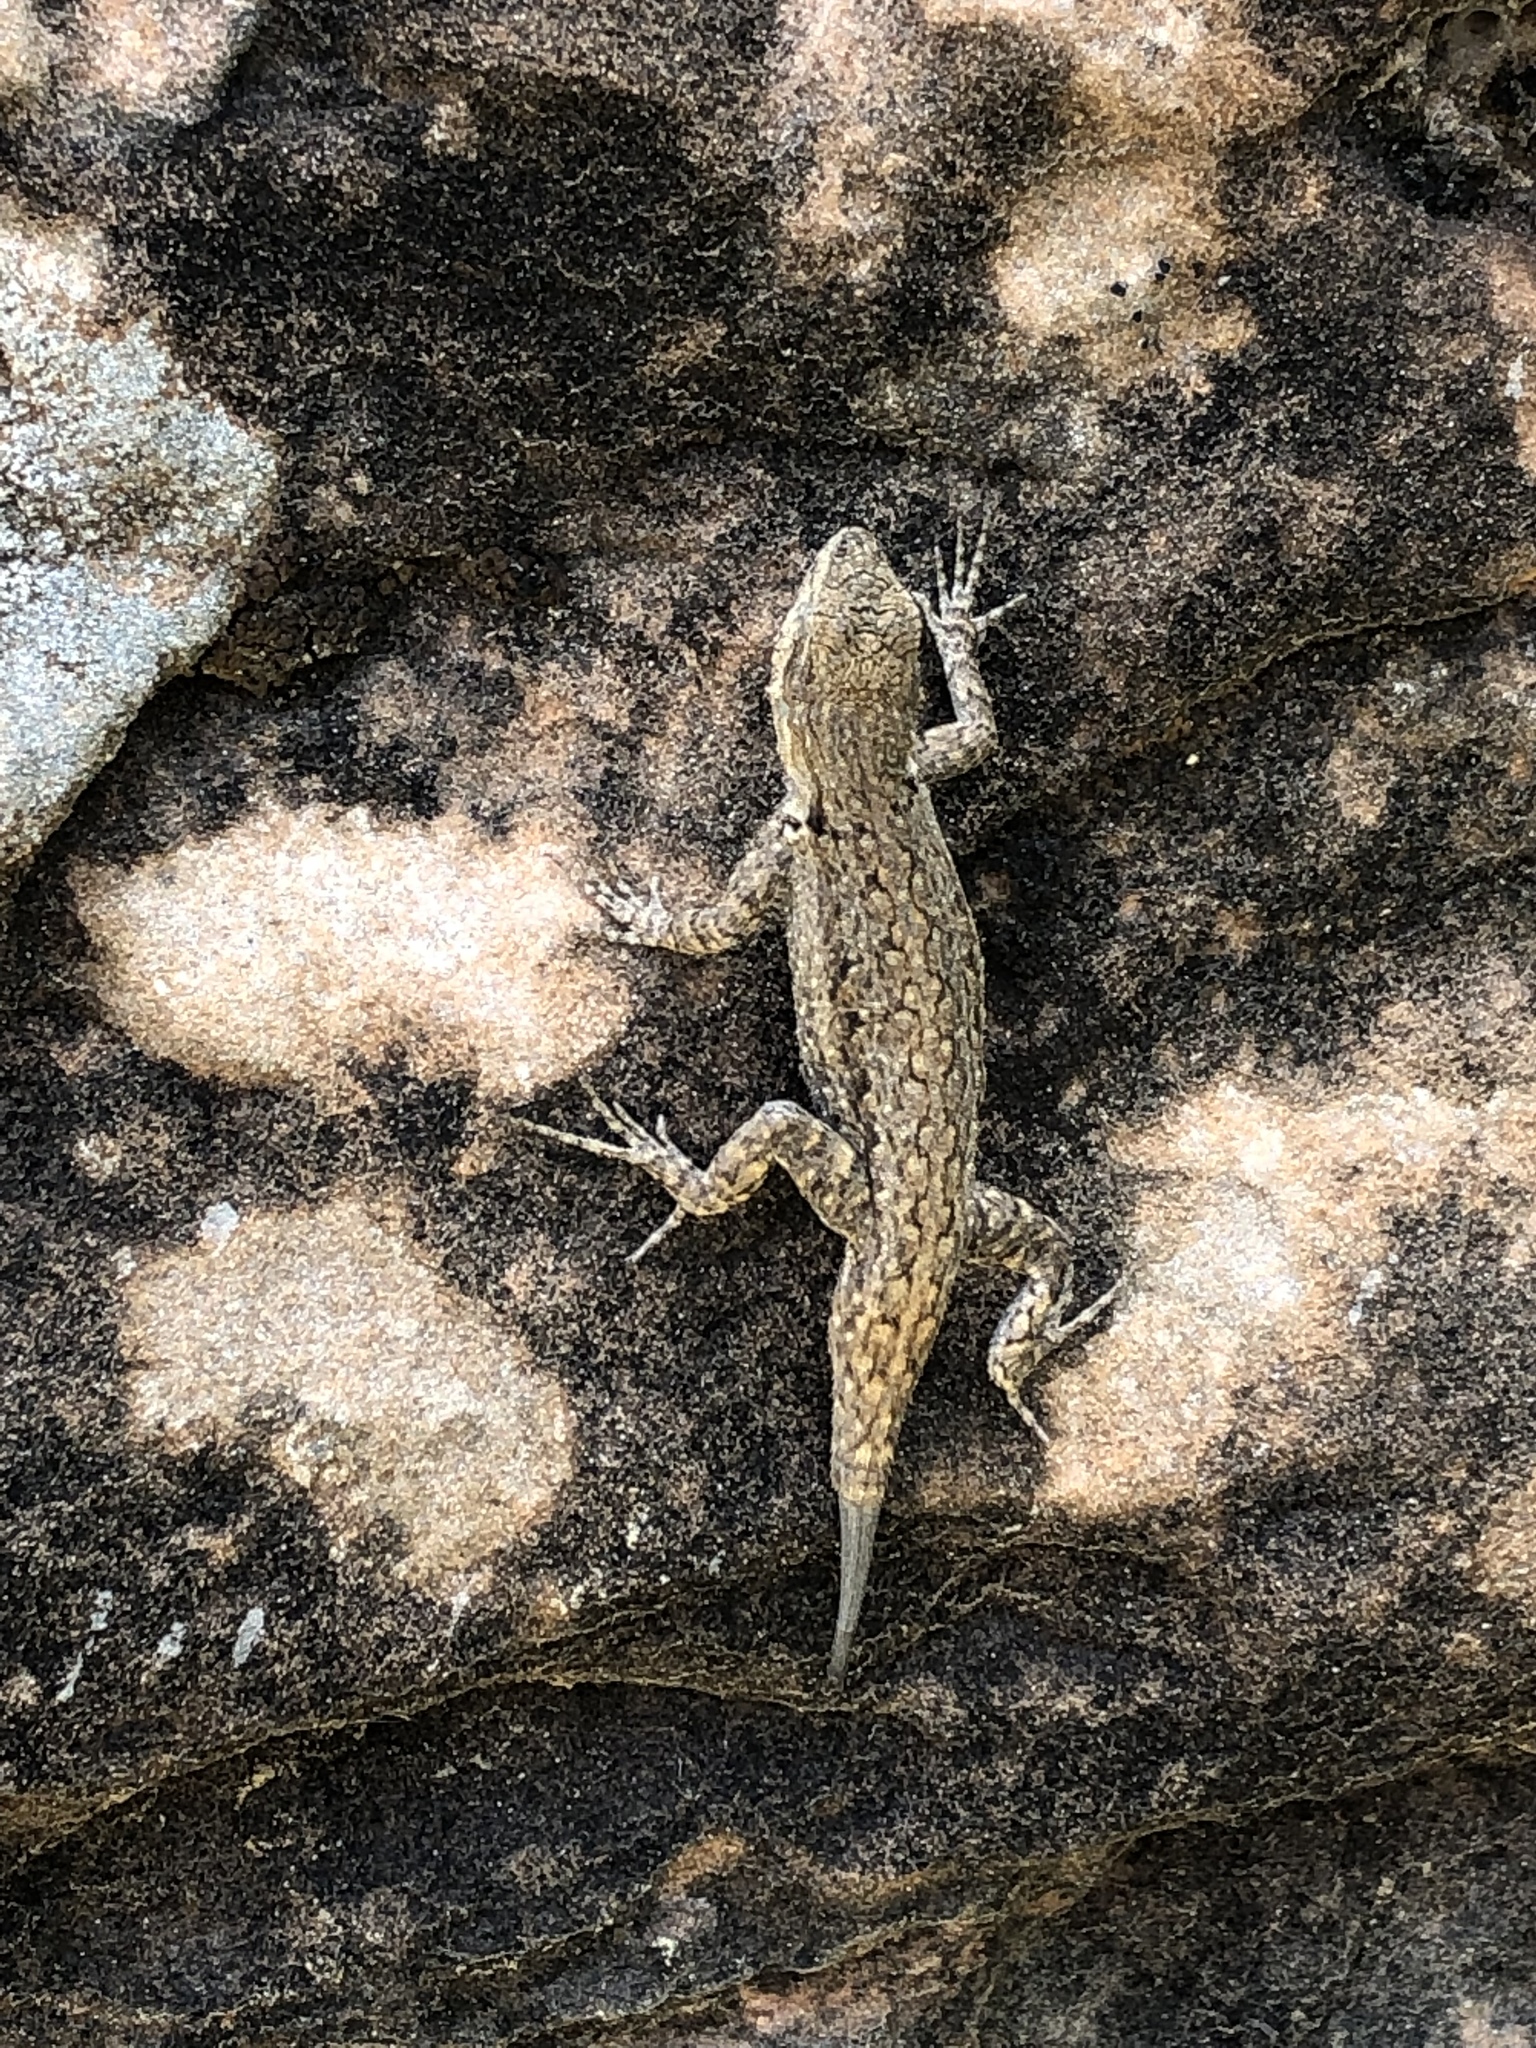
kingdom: Animalia
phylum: Chordata
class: Squamata
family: Phrynosomatidae
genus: Urosaurus
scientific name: Urosaurus ornatus
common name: Ornate tree lizard
